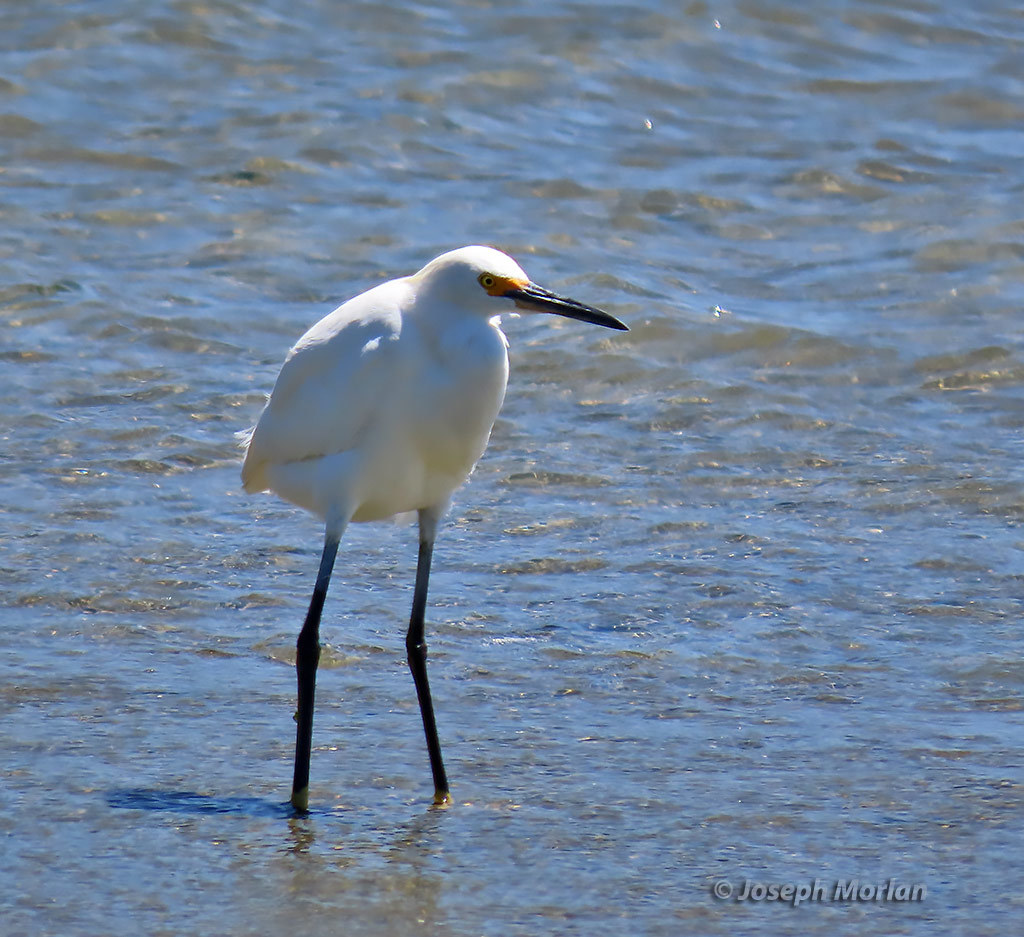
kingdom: Animalia
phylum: Chordata
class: Aves
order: Pelecaniformes
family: Ardeidae
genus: Egretta
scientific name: Egretta thula
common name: Snowy egret
